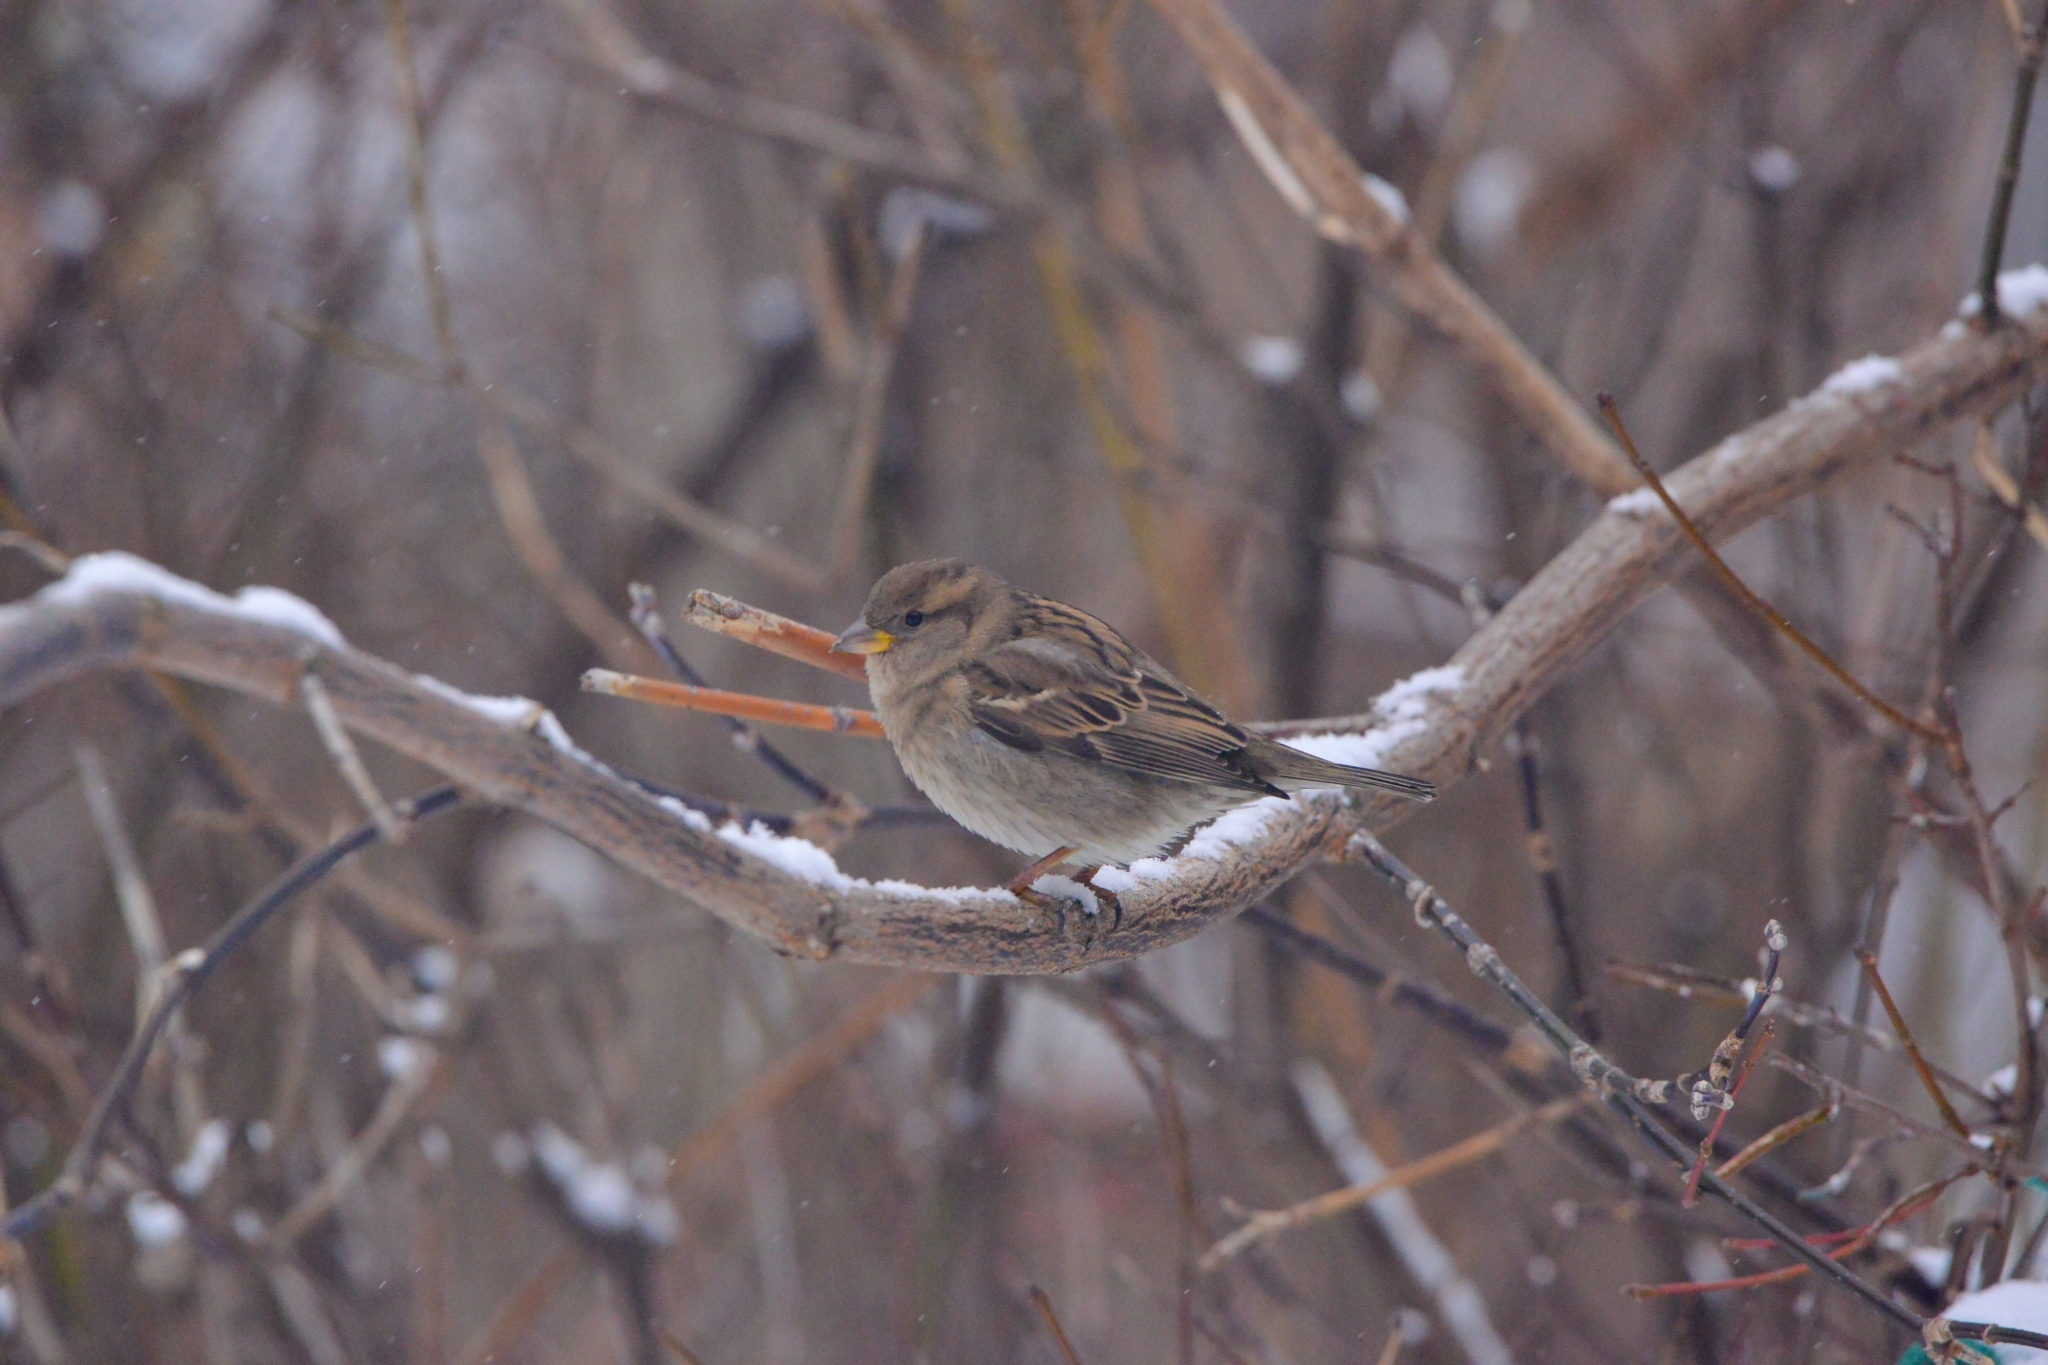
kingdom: Animalia
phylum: Chordata
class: Aves
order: Passeriformes
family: Passeridae
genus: Passer
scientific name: Passer domesticus
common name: House sparrow
